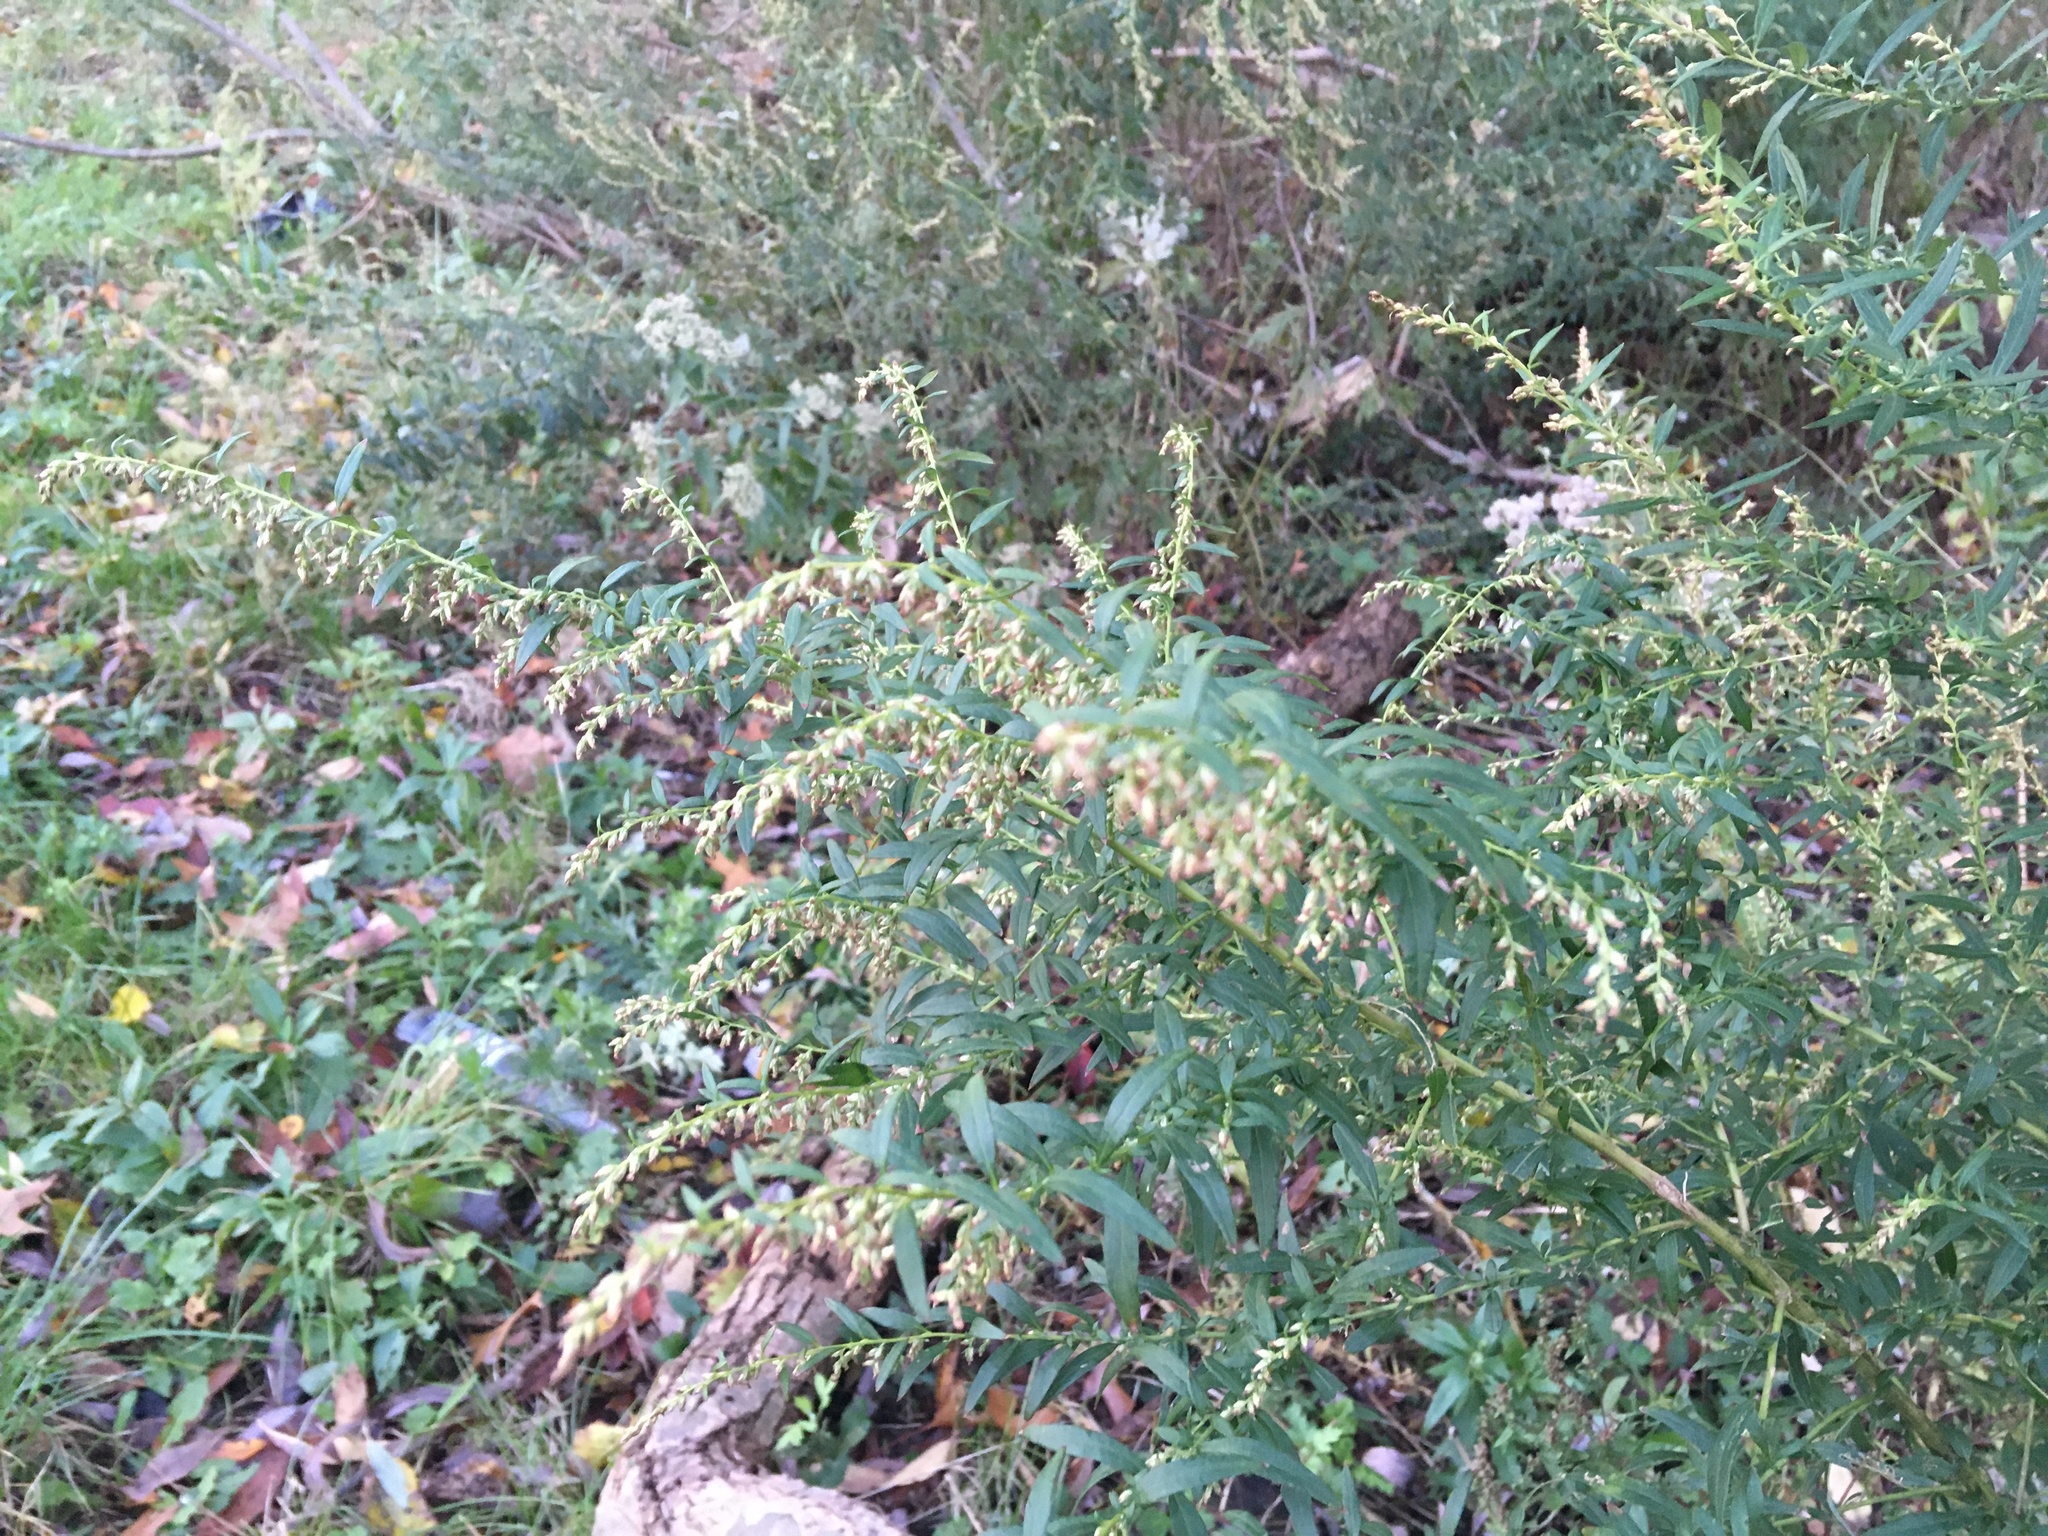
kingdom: Plantae
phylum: Tracheophyta
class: Magnoliopsida
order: Asterales
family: Asteraceae
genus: Artemisia
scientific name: Artemisia vulgaris
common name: Mugwort
